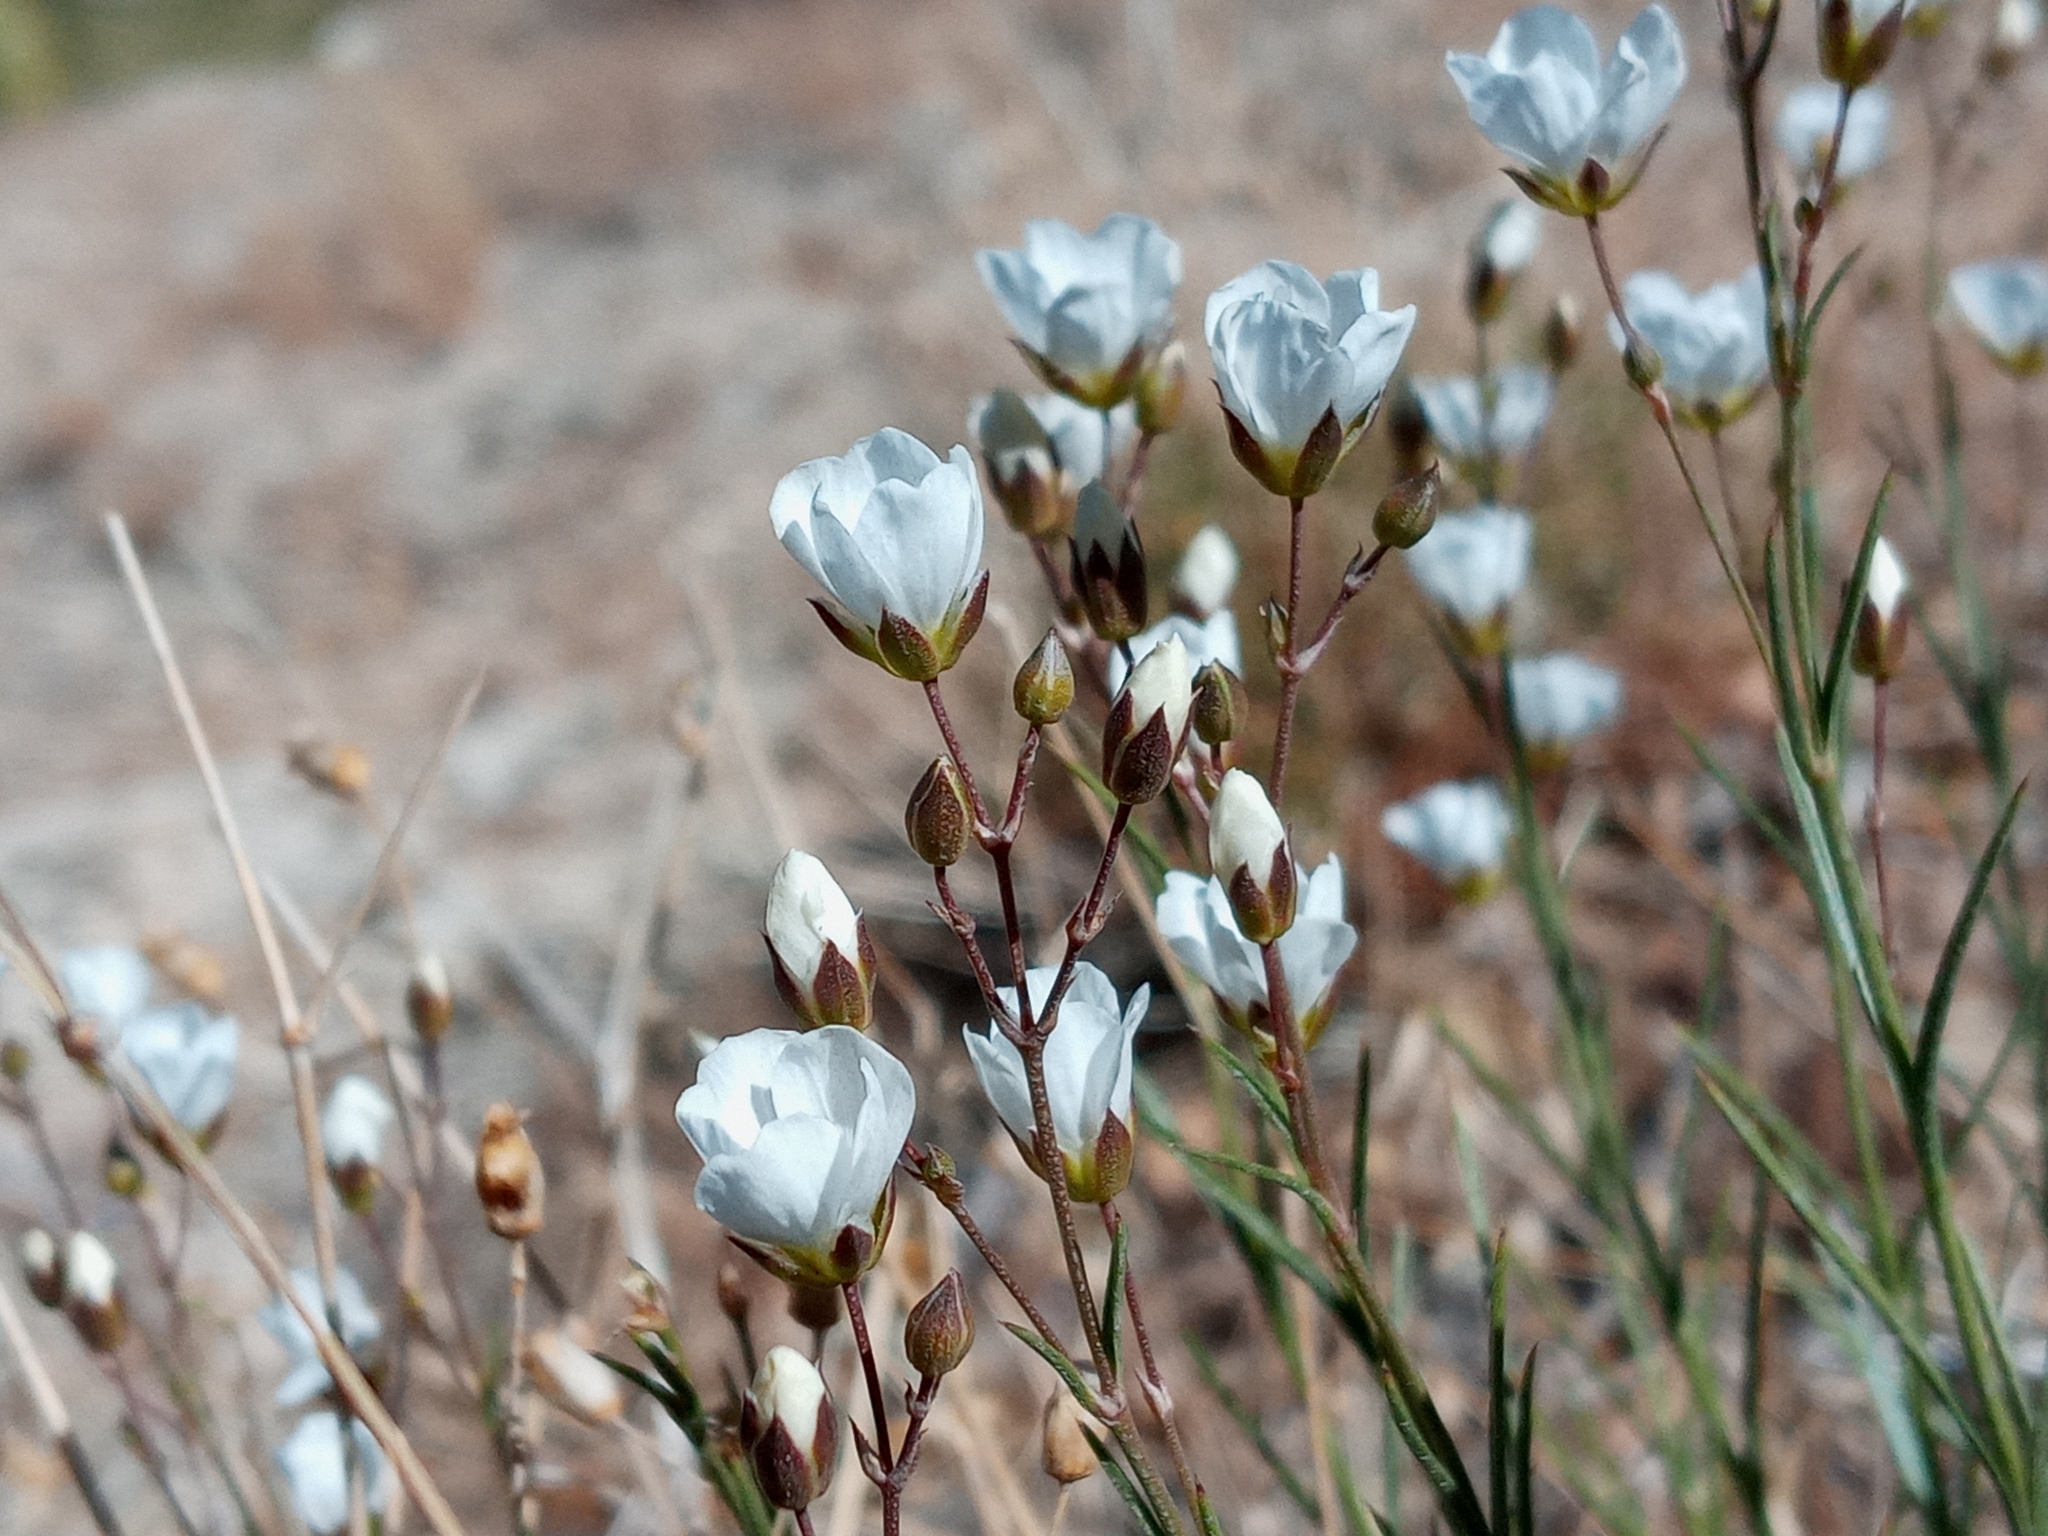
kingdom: Plantae
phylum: Tracheophyta
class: Magnoliopsida
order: Caryophyllales
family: Caryophyllaceae
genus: Eremogone
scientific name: Eremogone macradenia
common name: Mohave sandwort
